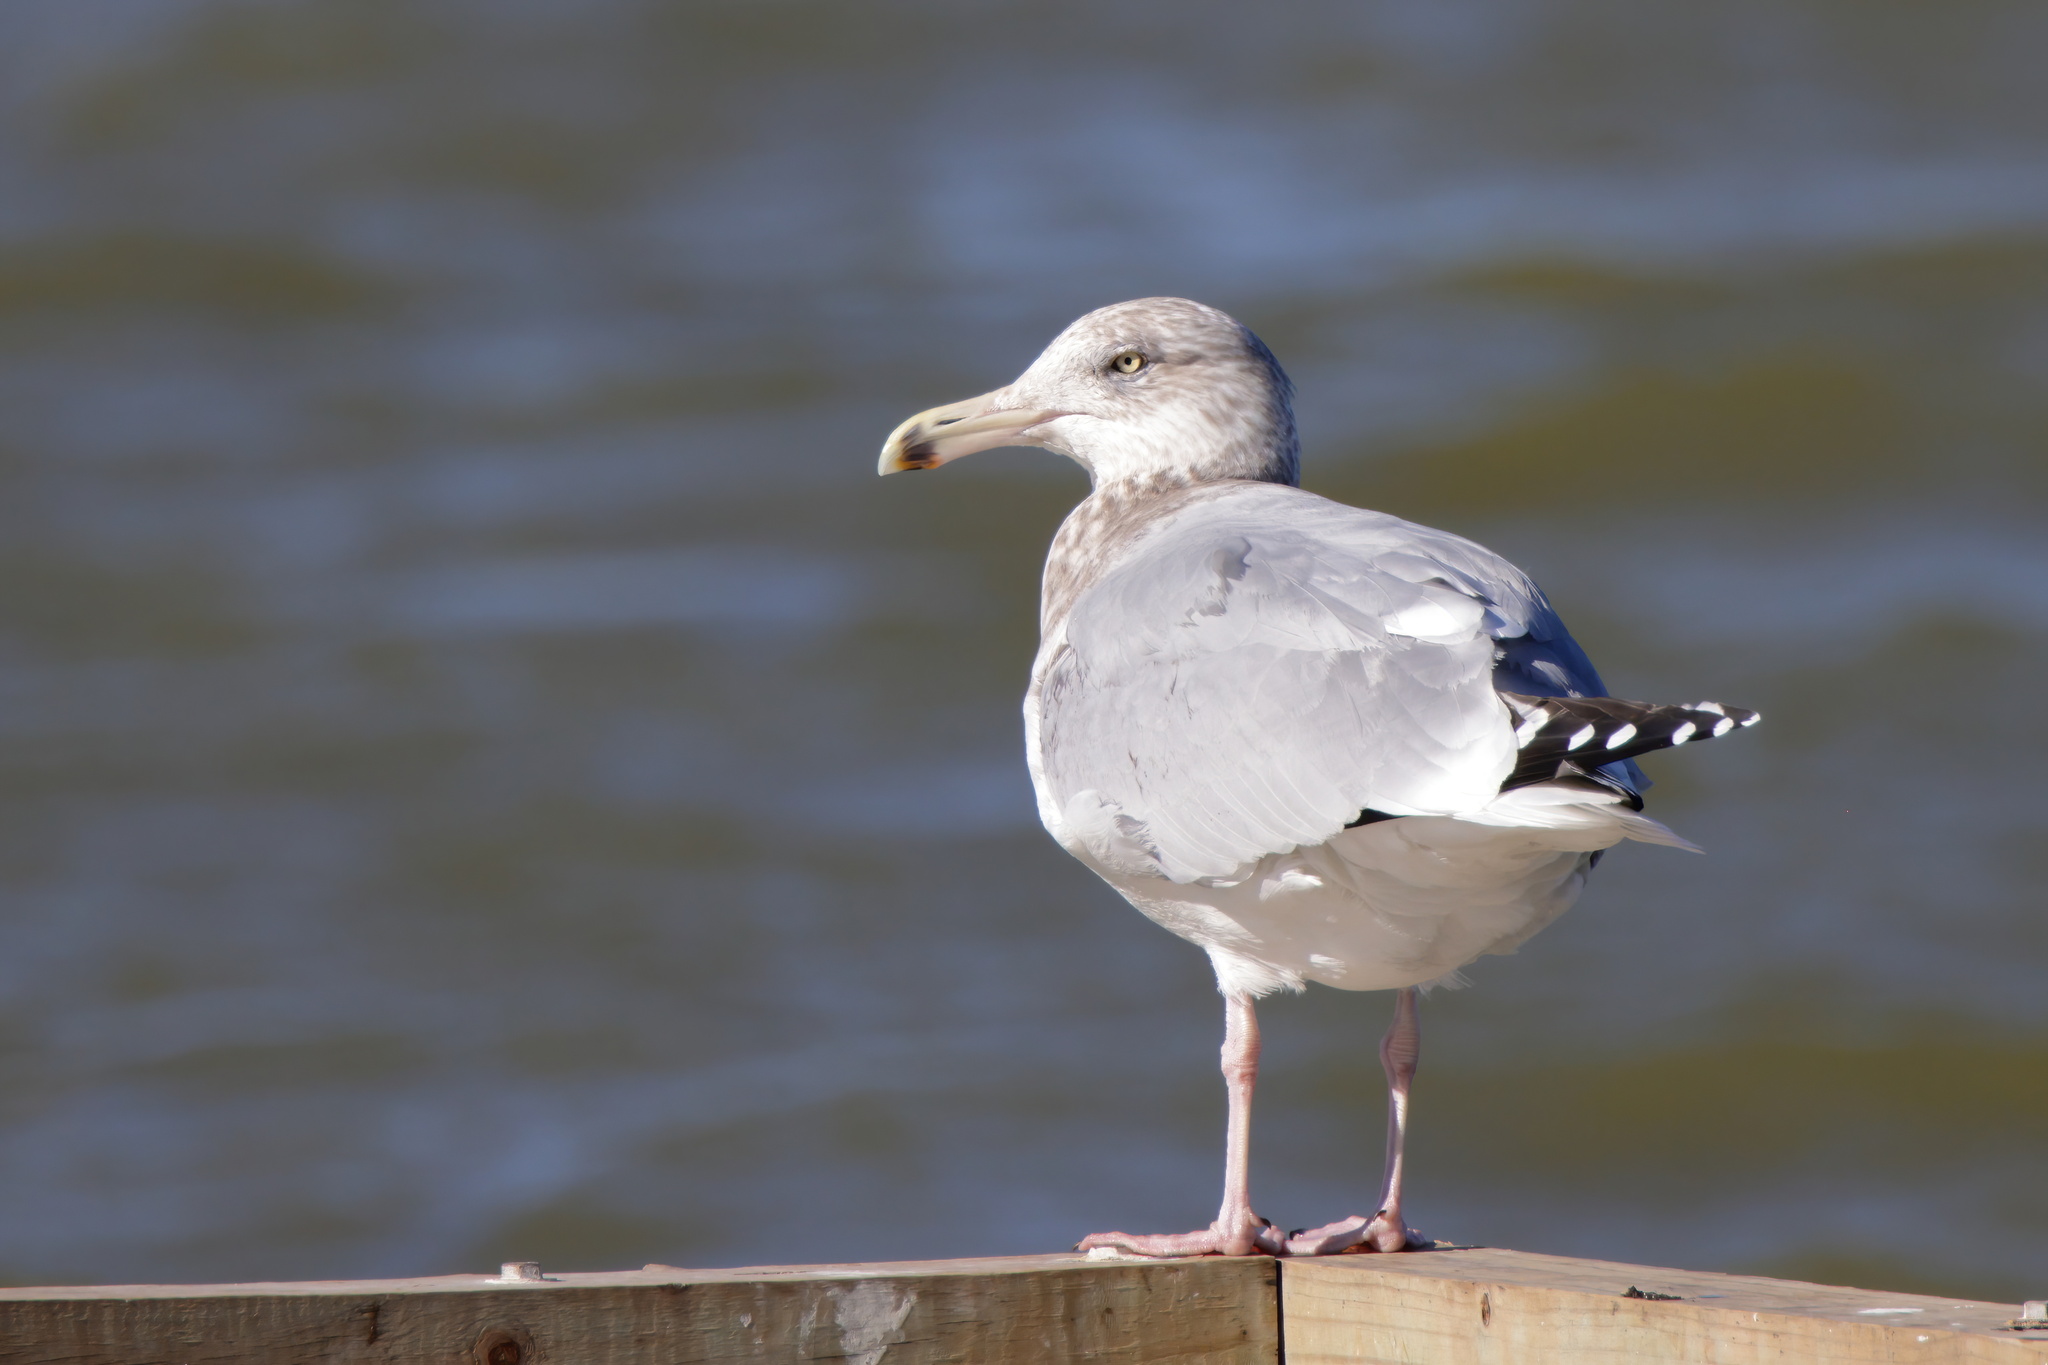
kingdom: Animalia
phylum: Chordata
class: Aves
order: Charadriiformes
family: Laridae
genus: Larus
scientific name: Larus argentatus
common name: Herring gull
